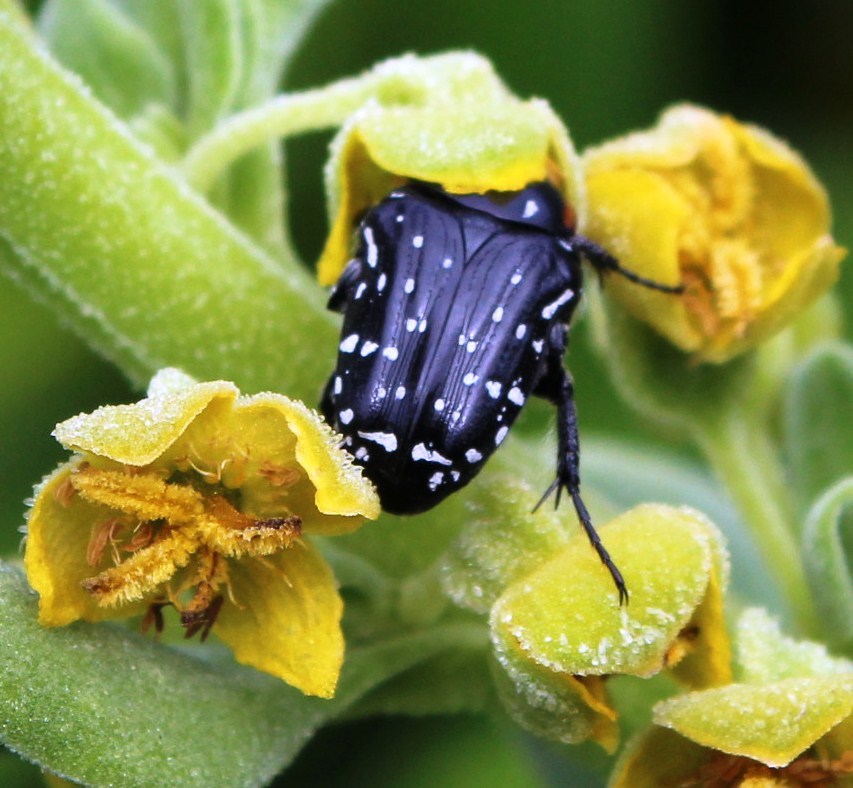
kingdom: Animalia
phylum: Arthropoda
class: Insecta
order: Coleoptera
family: Scarabaeidae
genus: Oxythyrea
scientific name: Oxythyrea
